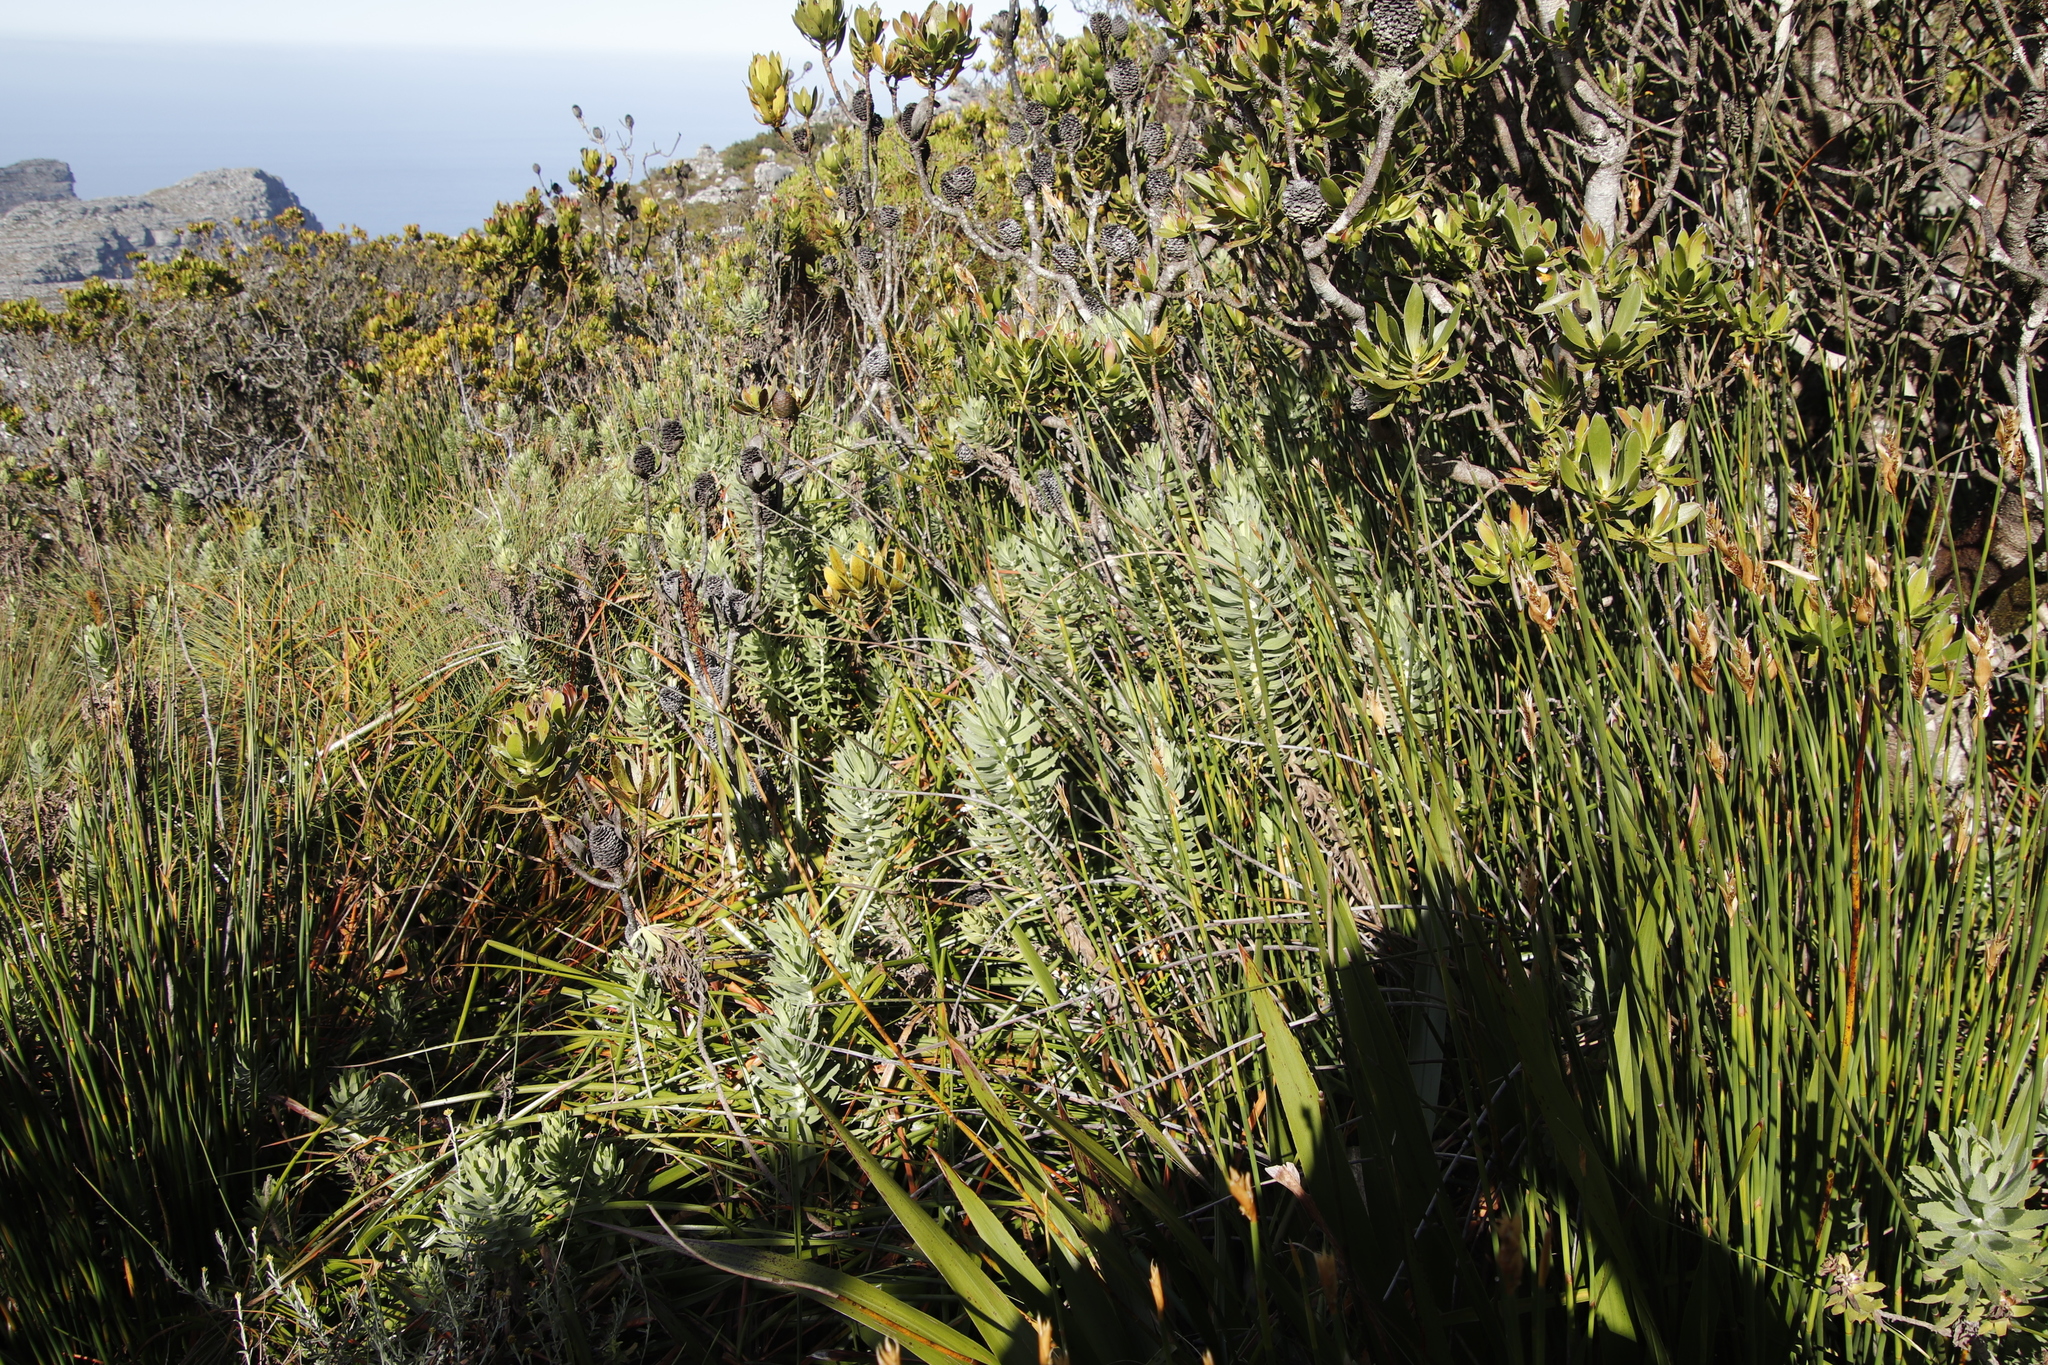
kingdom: Plantae
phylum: Tracheophyta
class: Magnoliopsida
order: Asterales
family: Asteraceae
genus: Osmitopsis
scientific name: Osmitopsis asteriscoides
